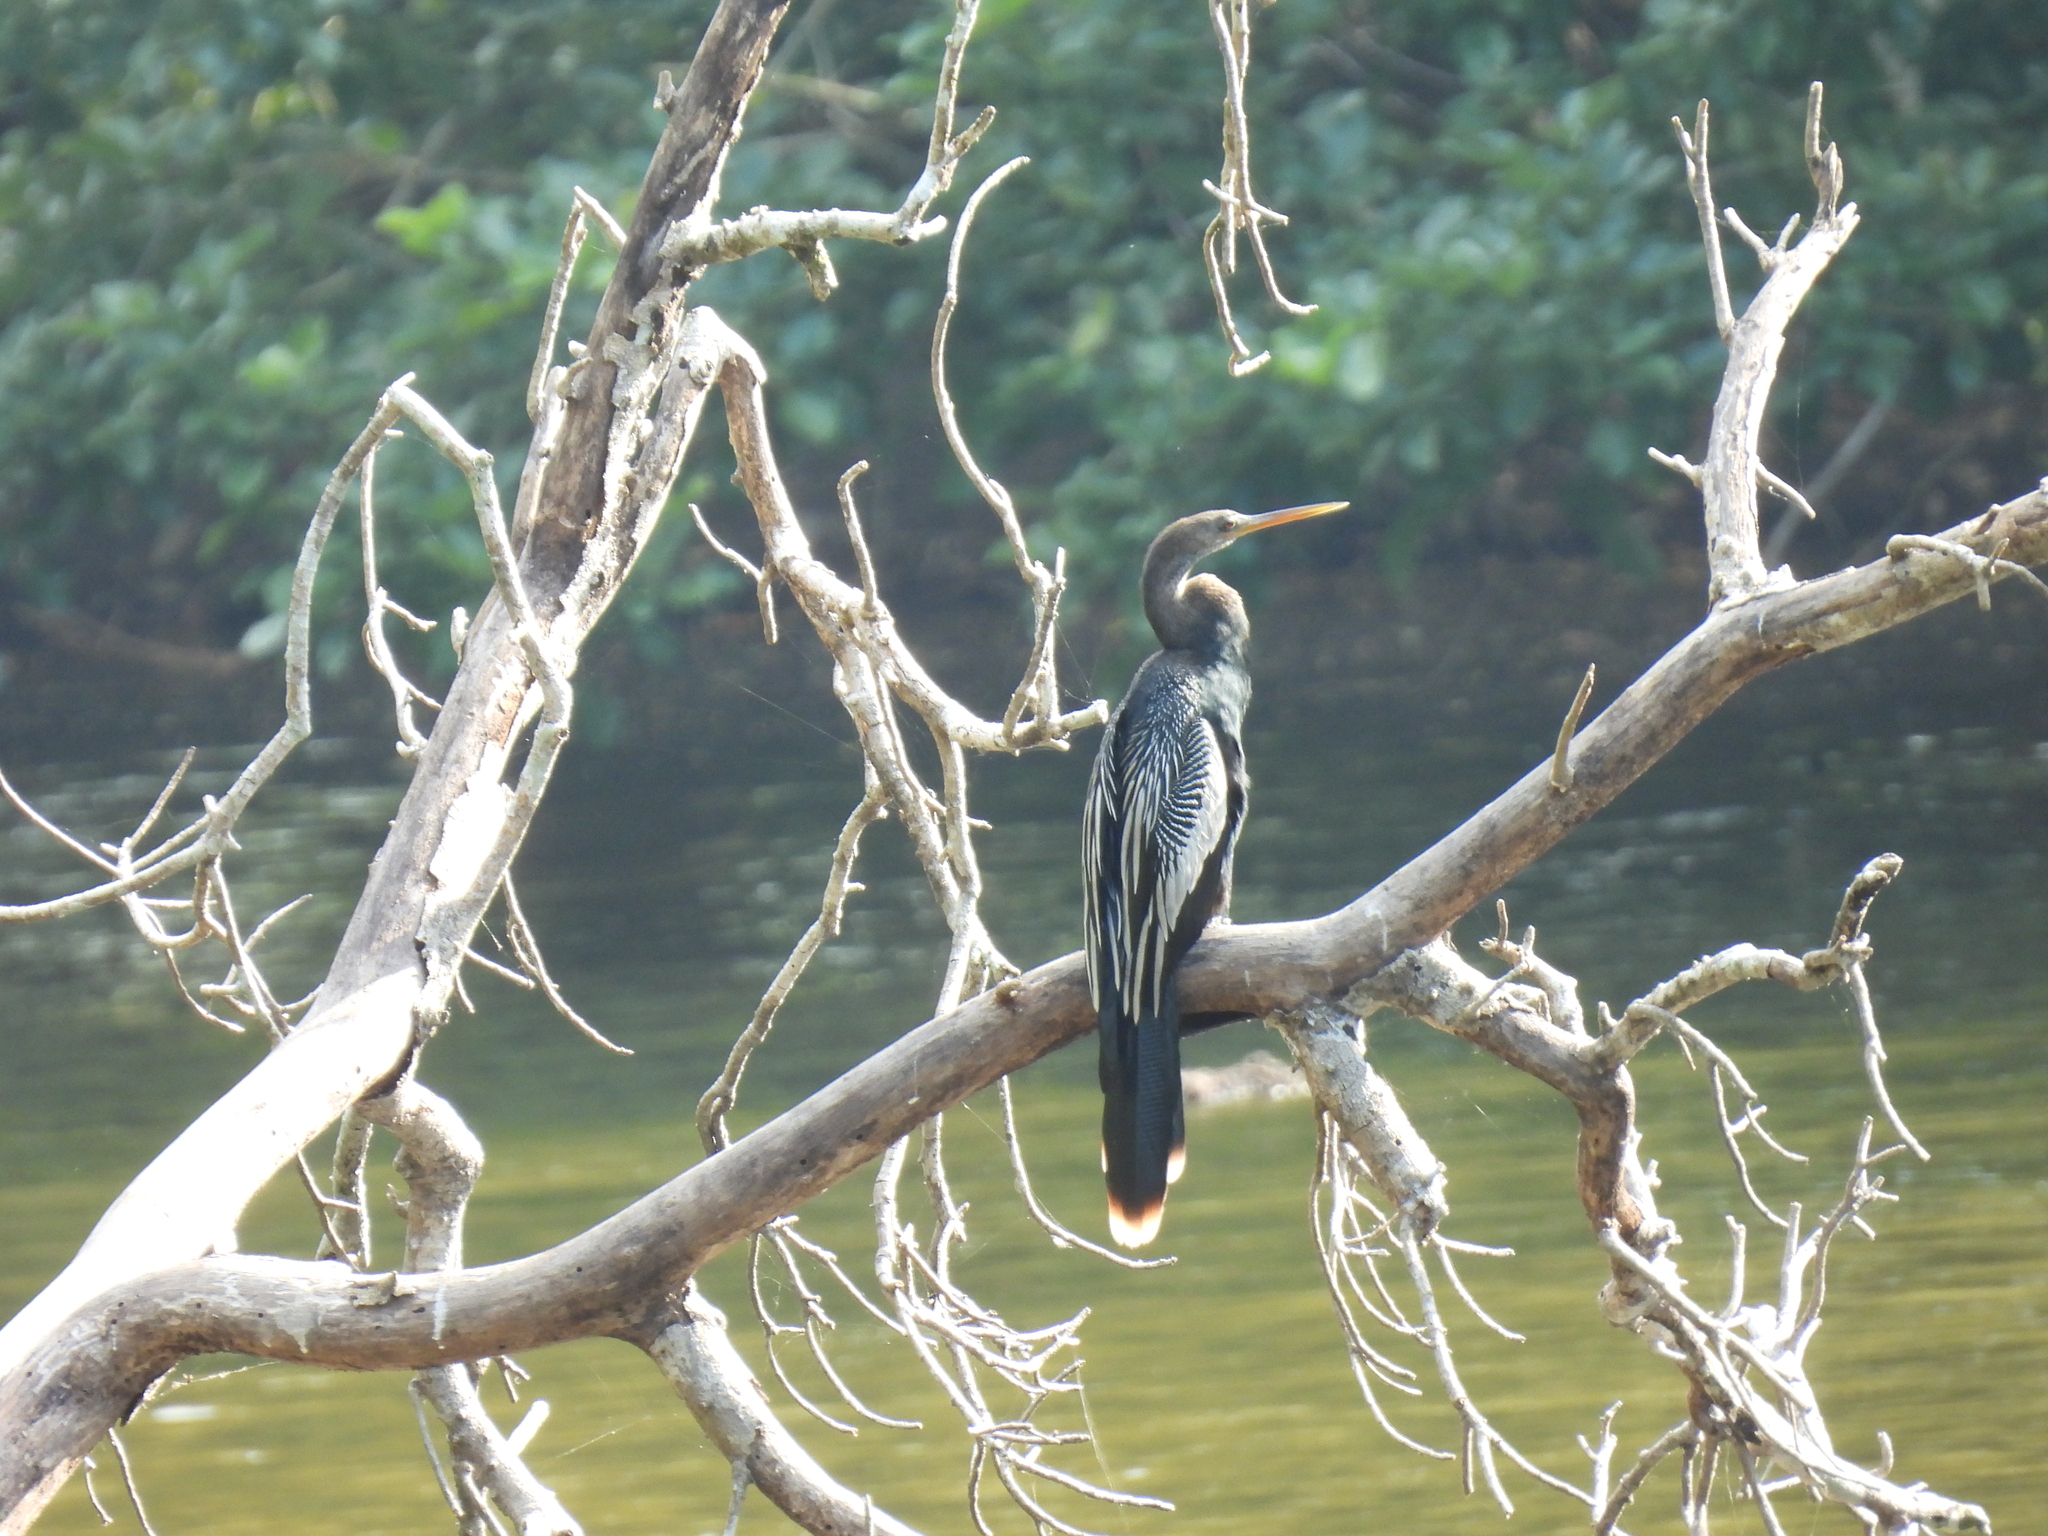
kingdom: Animalia
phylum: Chordata
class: Aves
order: Suliformes
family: Anhingidae
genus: Anhinga
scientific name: Anhinga anhinga
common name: Anhinga
